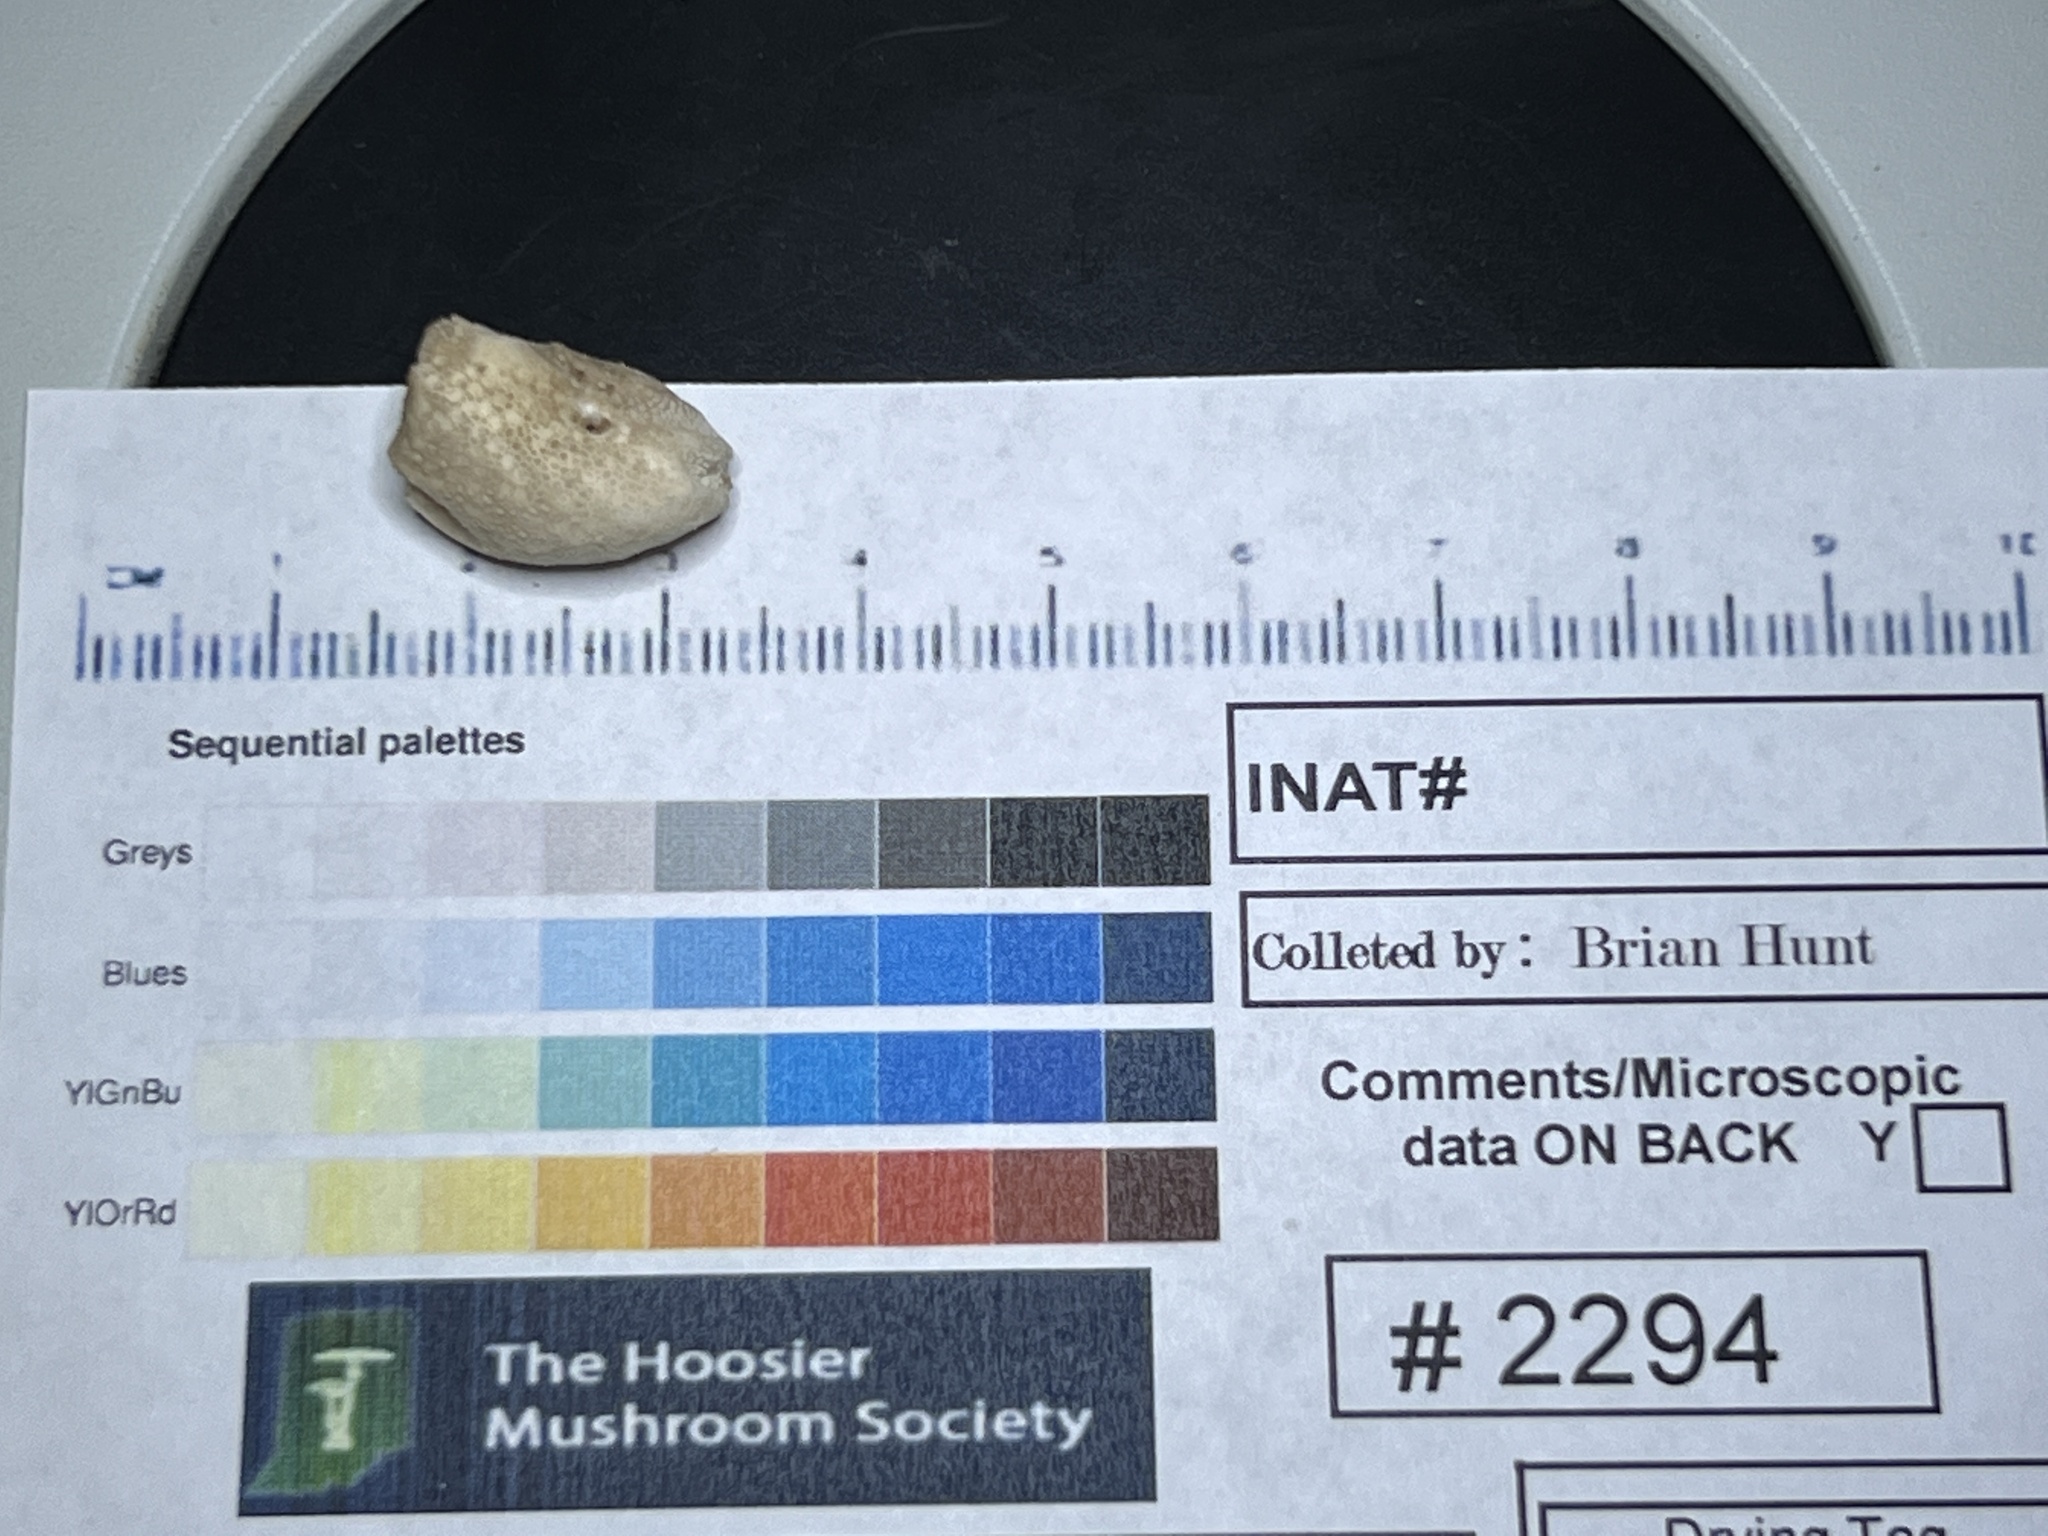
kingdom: Fungi
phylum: Basidiomycota
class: Agaricomycetes
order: Agaricales
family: Lycoperdaceae
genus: Lycoperdon
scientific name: Lycoperdon perlatum
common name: Common puffball
